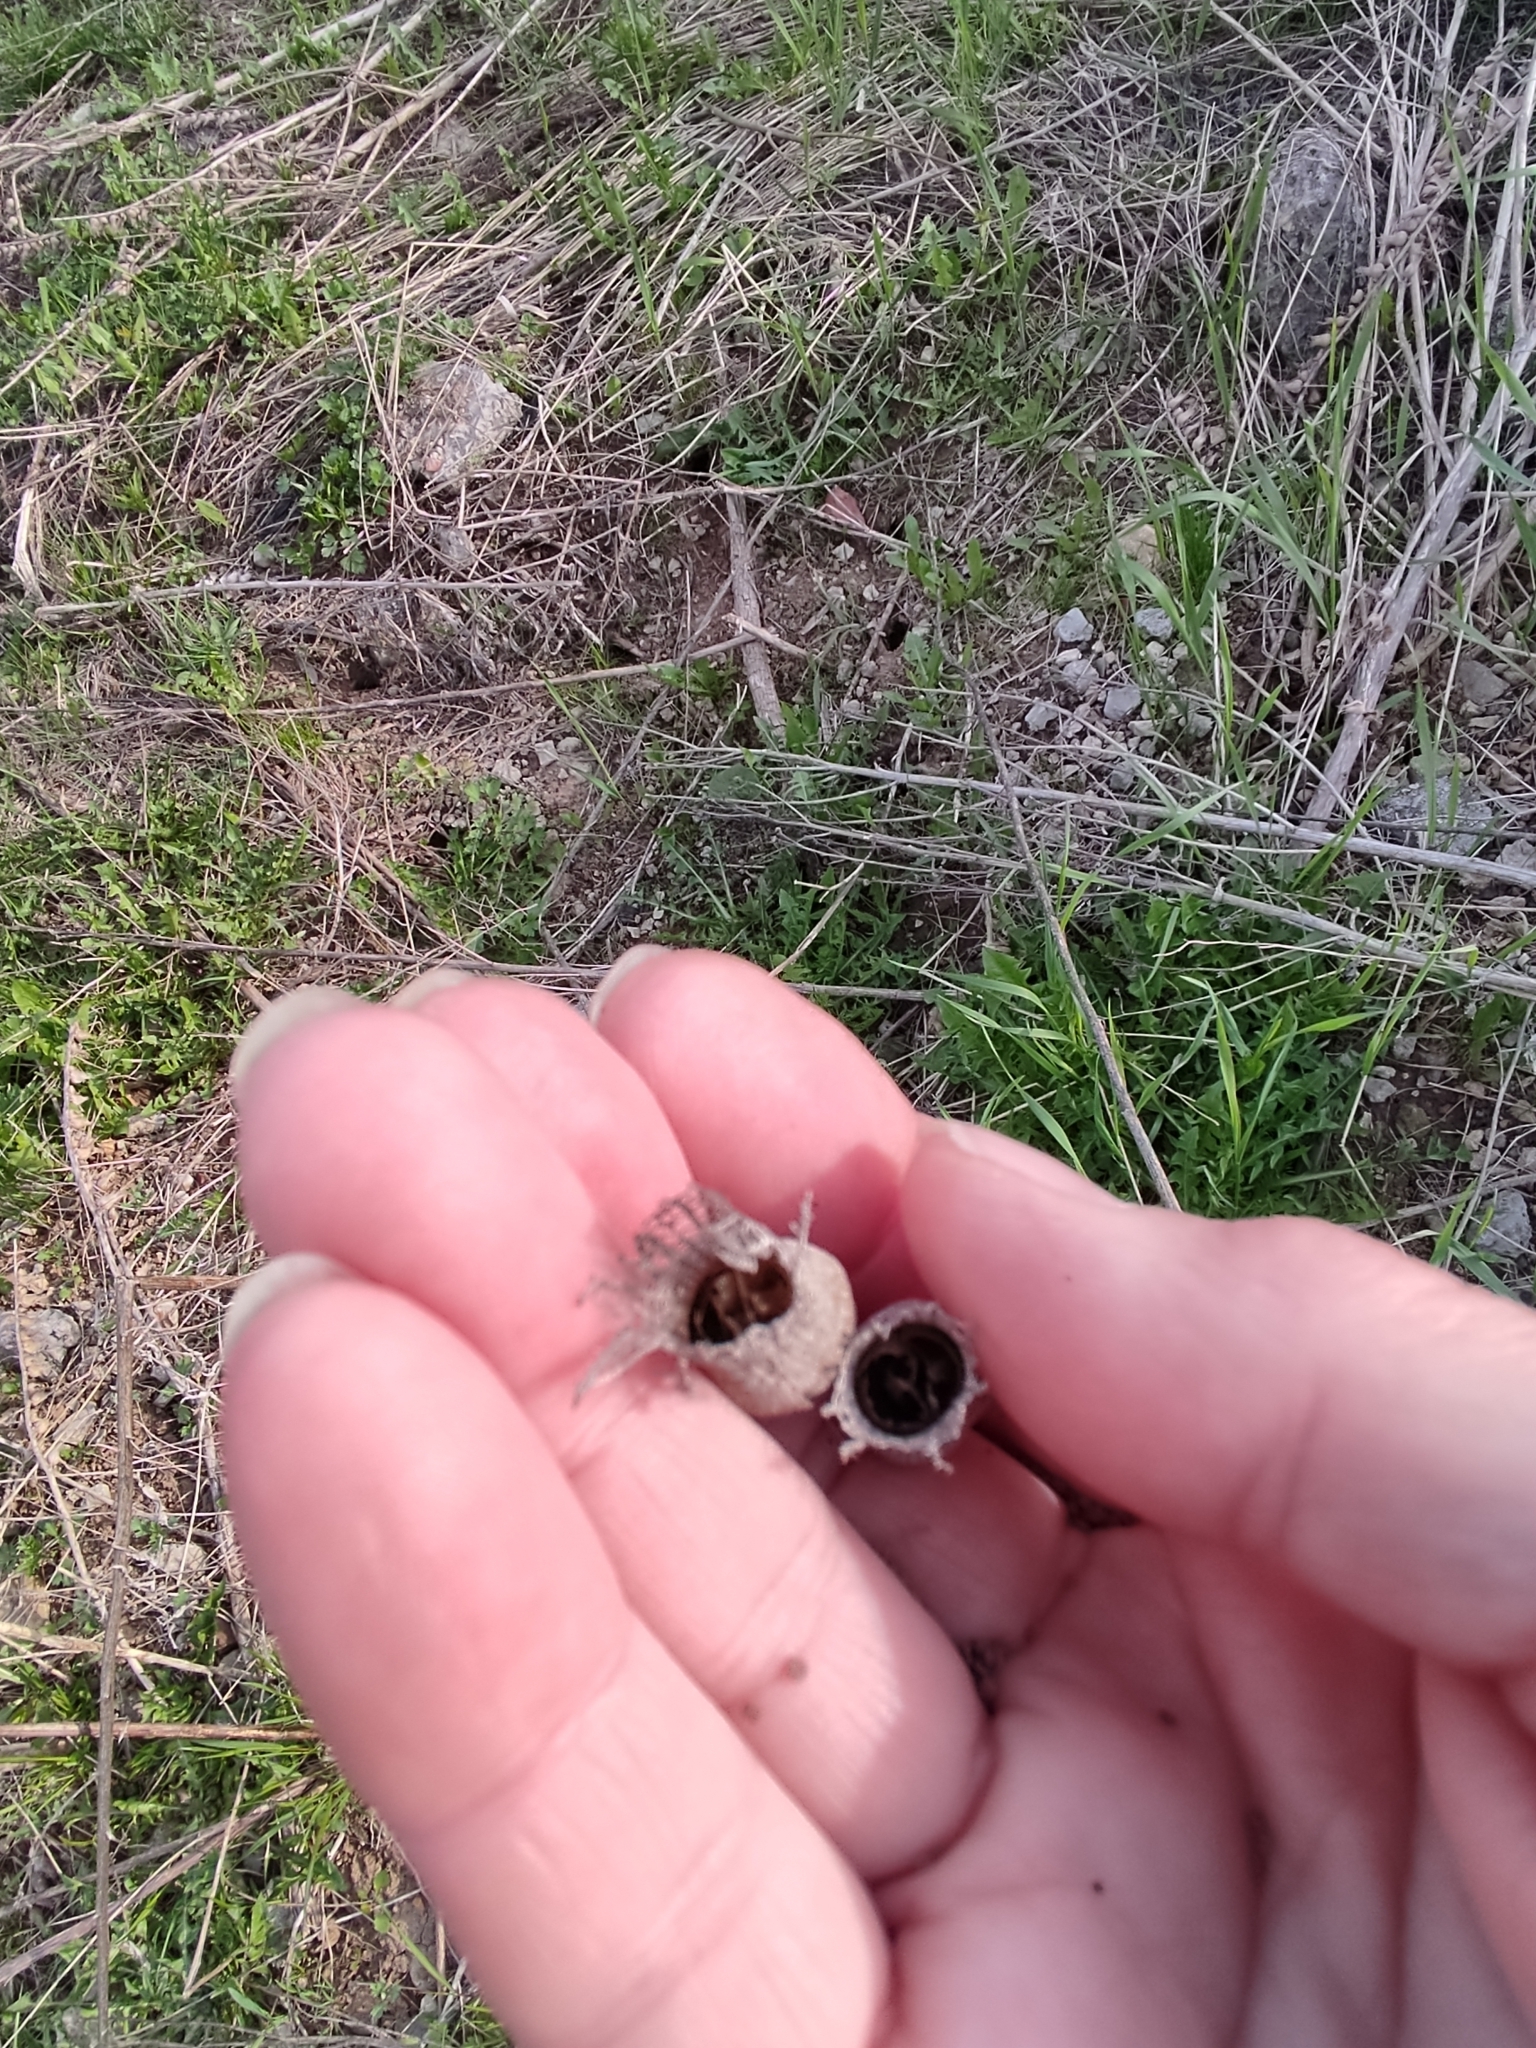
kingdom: Plantae
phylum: Tracheophyta
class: Magnoliopsida
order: Solanales
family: Solanaceae
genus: Hyoscyamus
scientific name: Hyoscyamus niger
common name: Henbane
